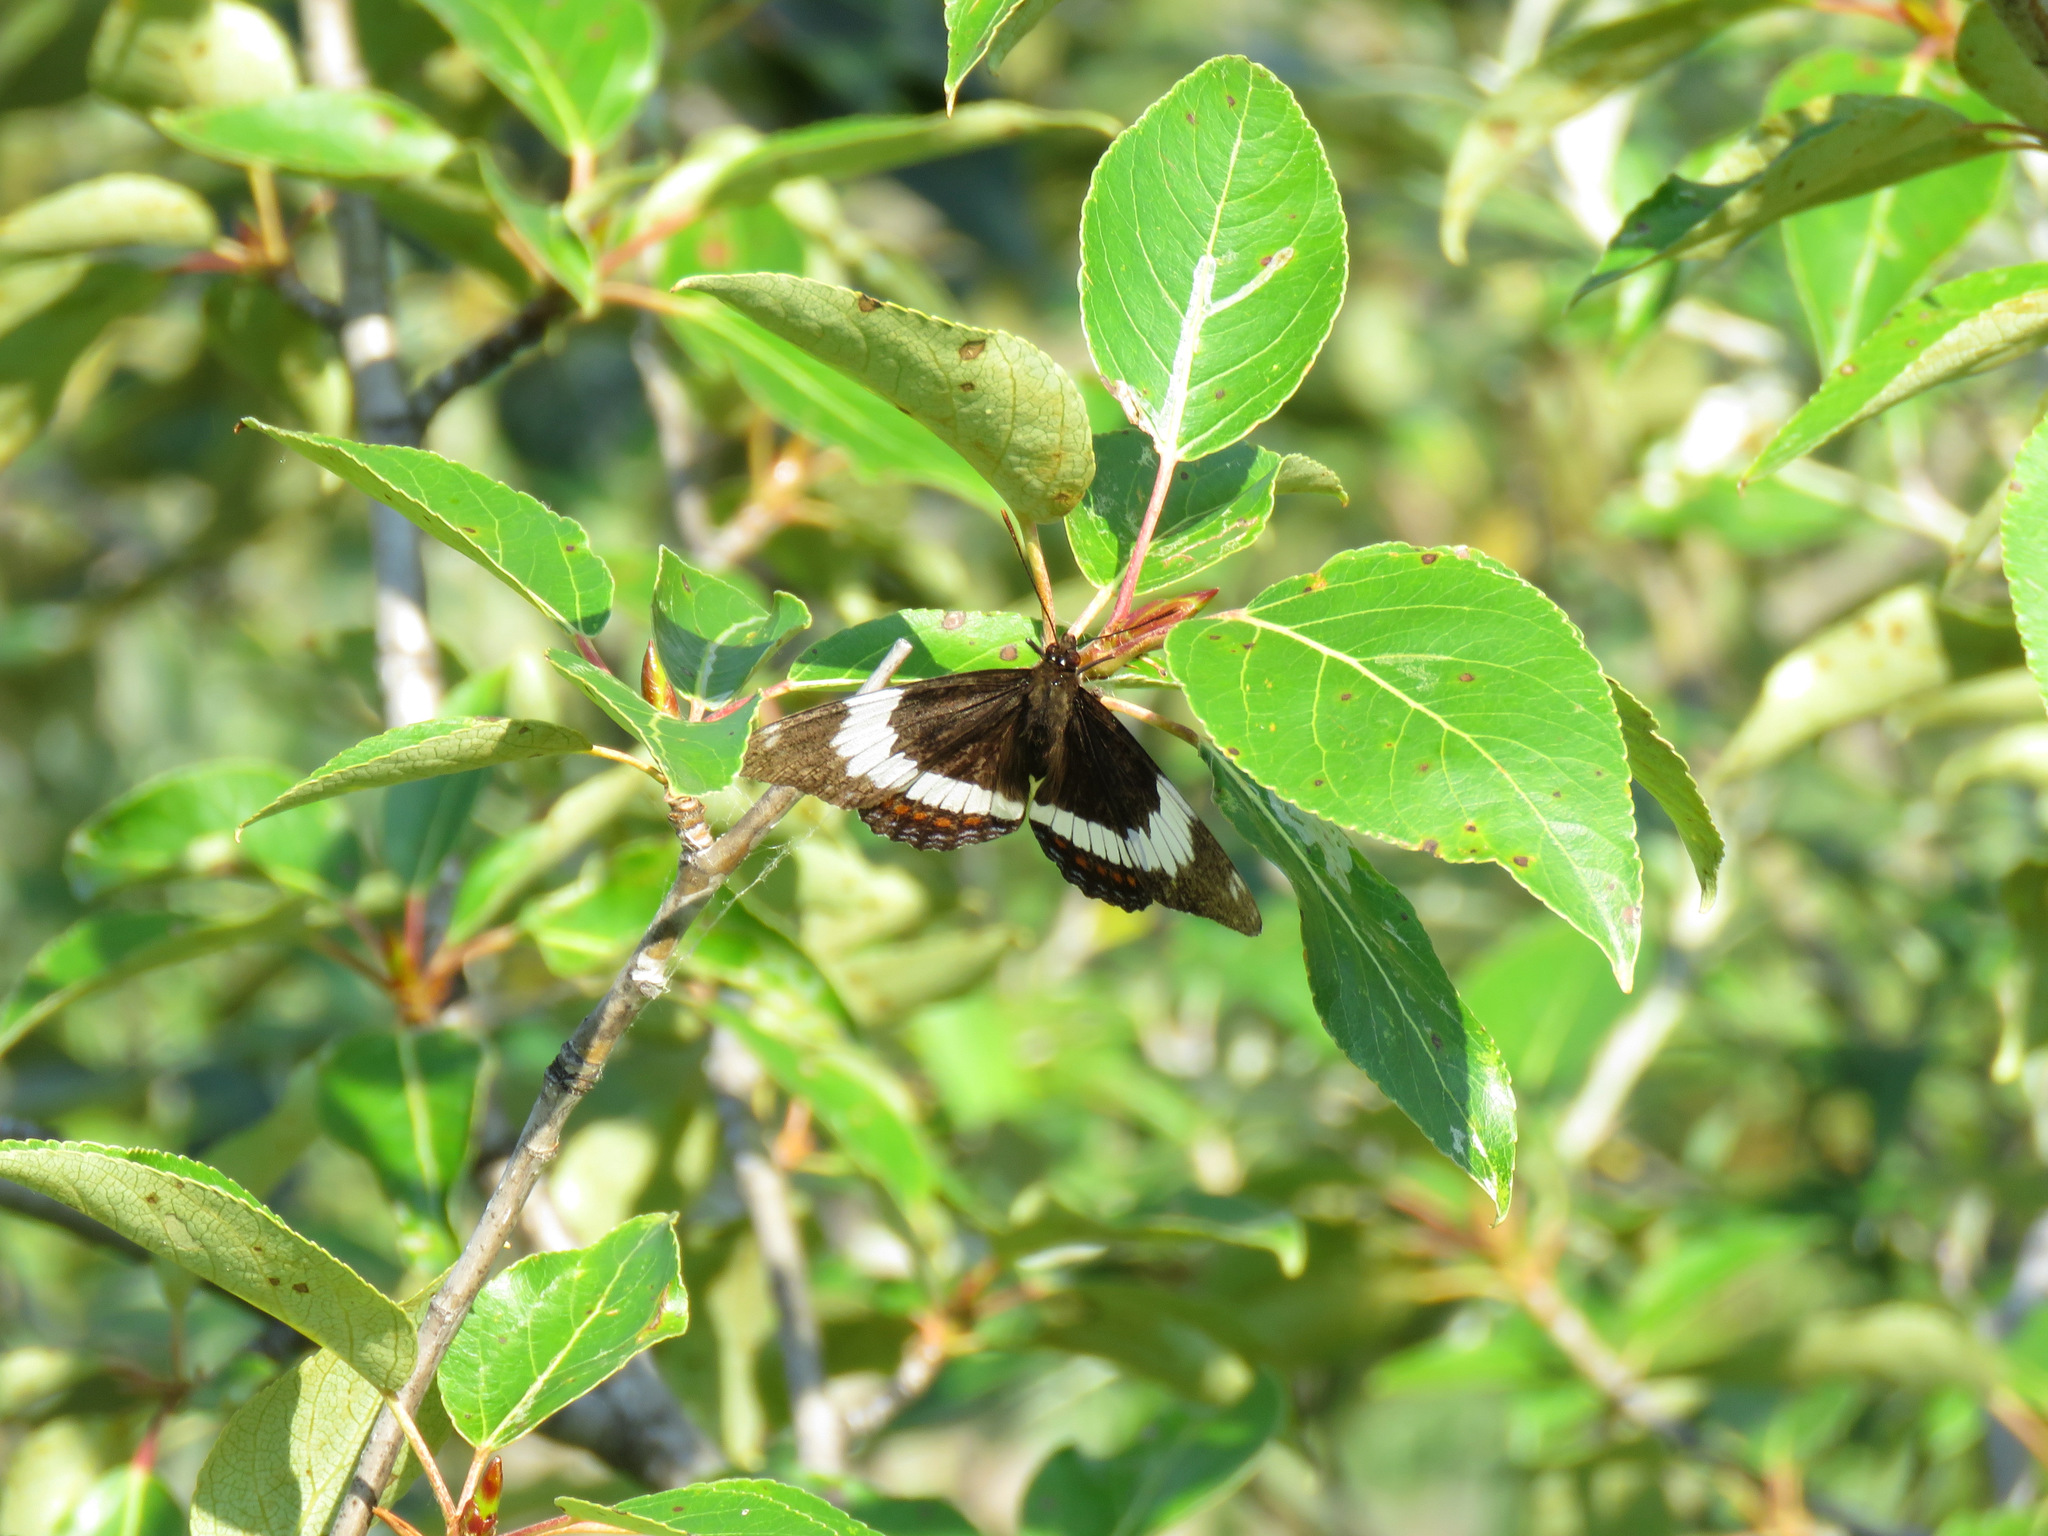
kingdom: Animalia
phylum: Arthropoda
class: Insecta
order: Lepidoptera
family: Nymphalidae
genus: Limenitis
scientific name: Limenitis arthemis
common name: Red-spotted admiral
